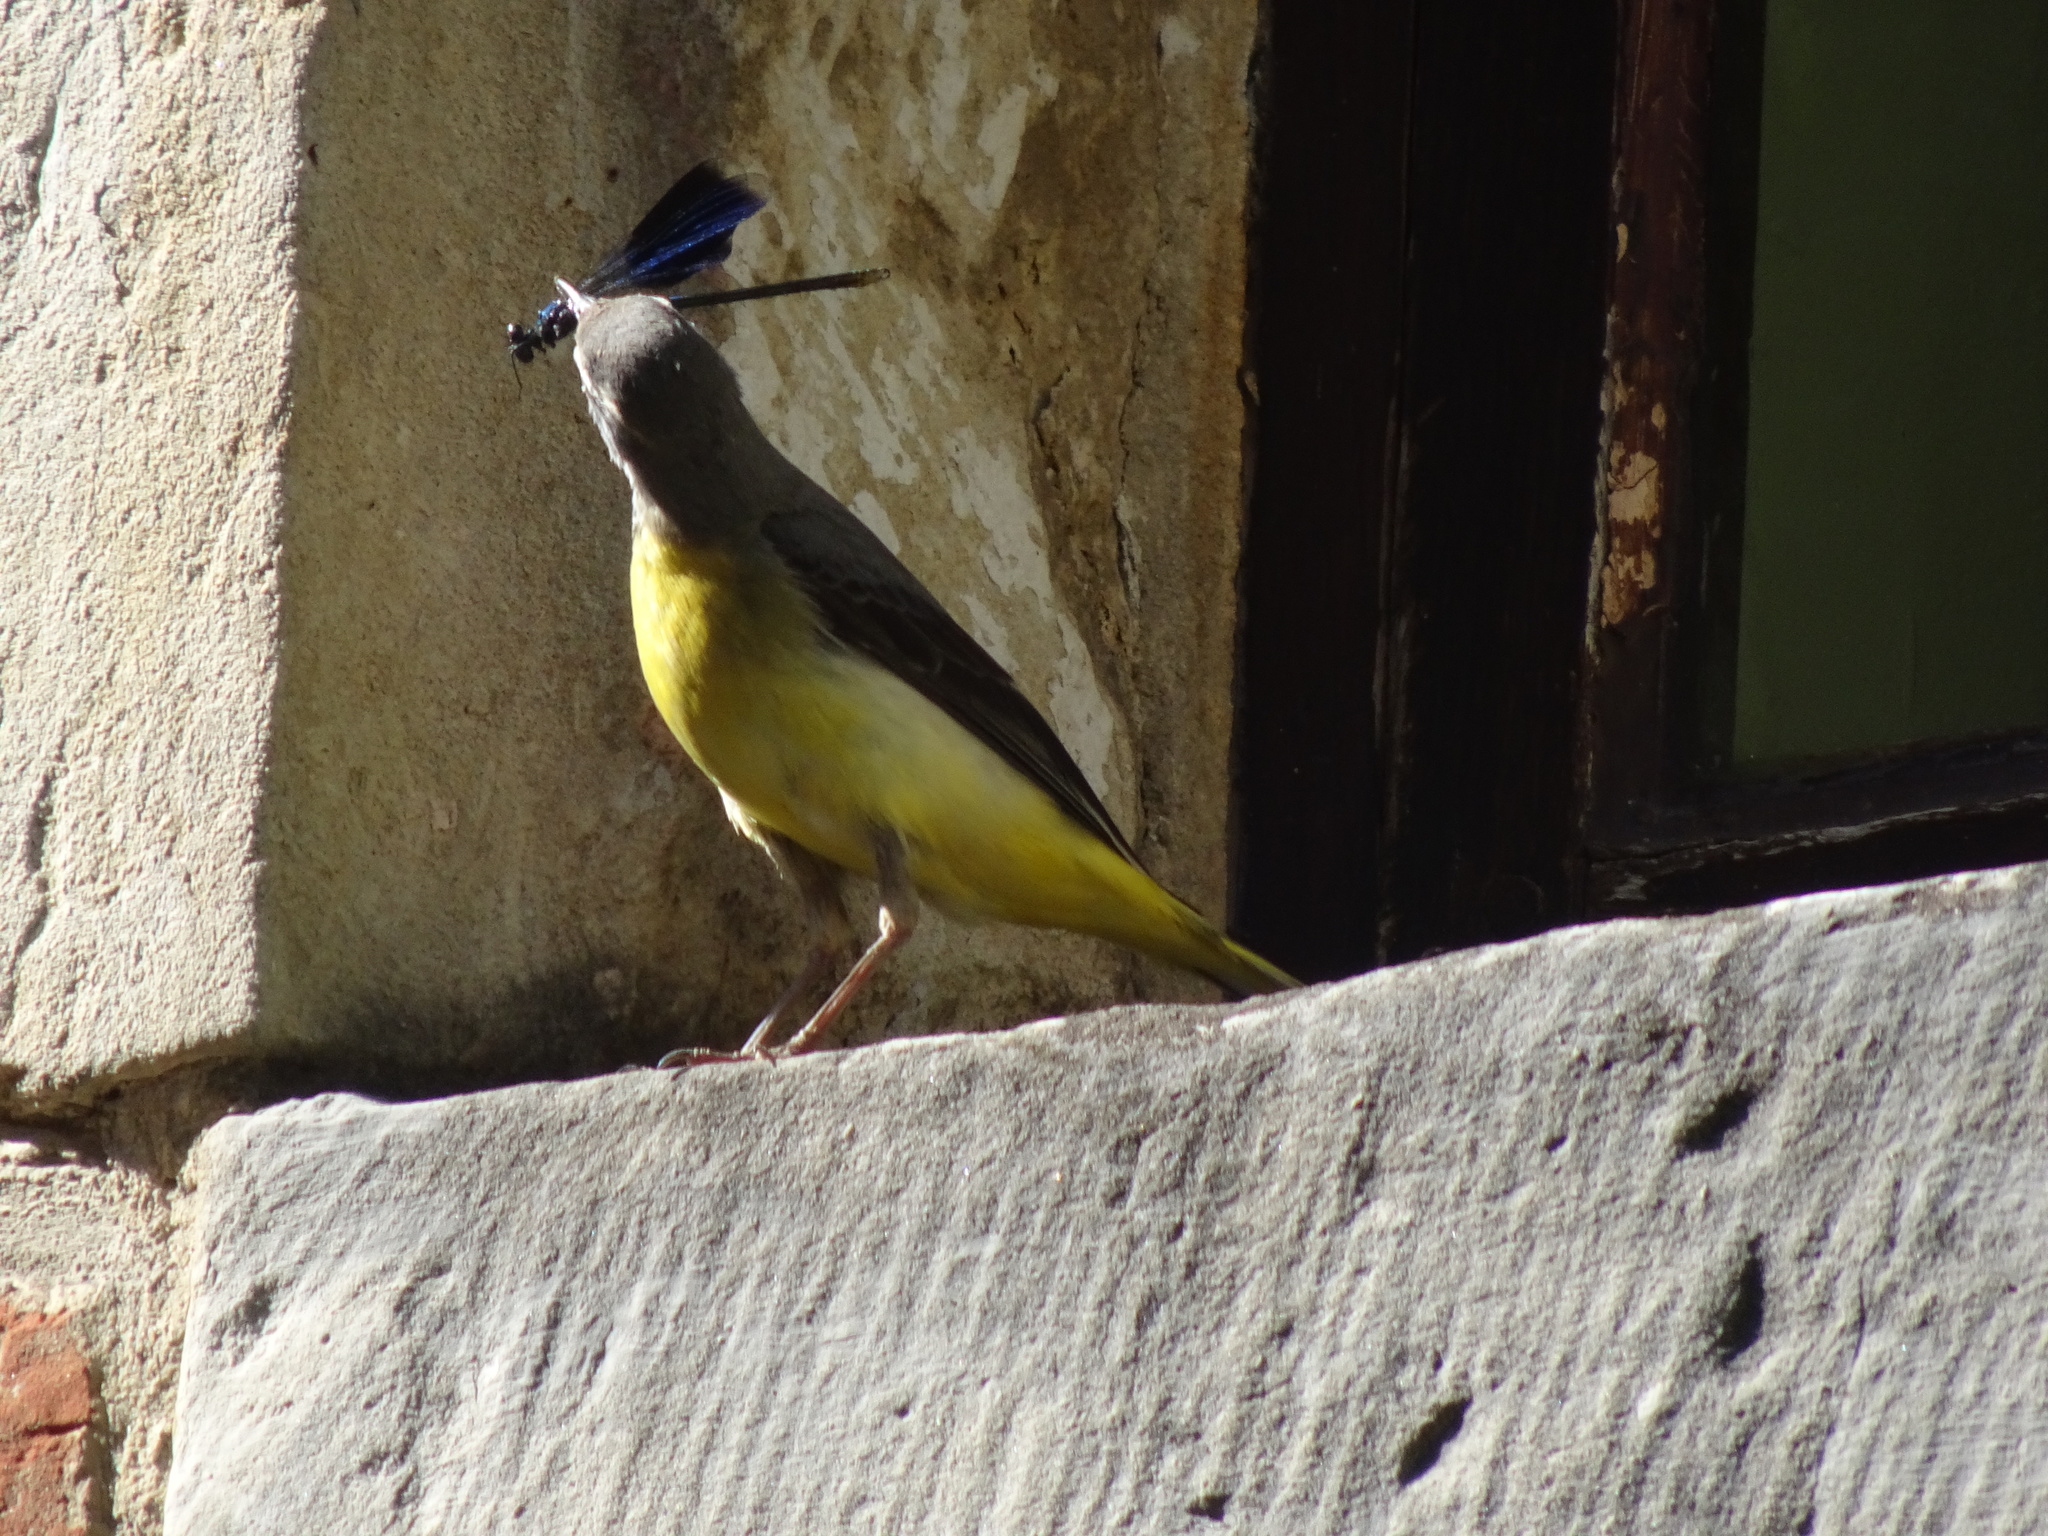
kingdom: Animalia
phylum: Arthropoda
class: Insecta
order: Odonata
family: Calopterygidae
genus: Calopteryx
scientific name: Calopteryx splendens
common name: Banded demoiselle
